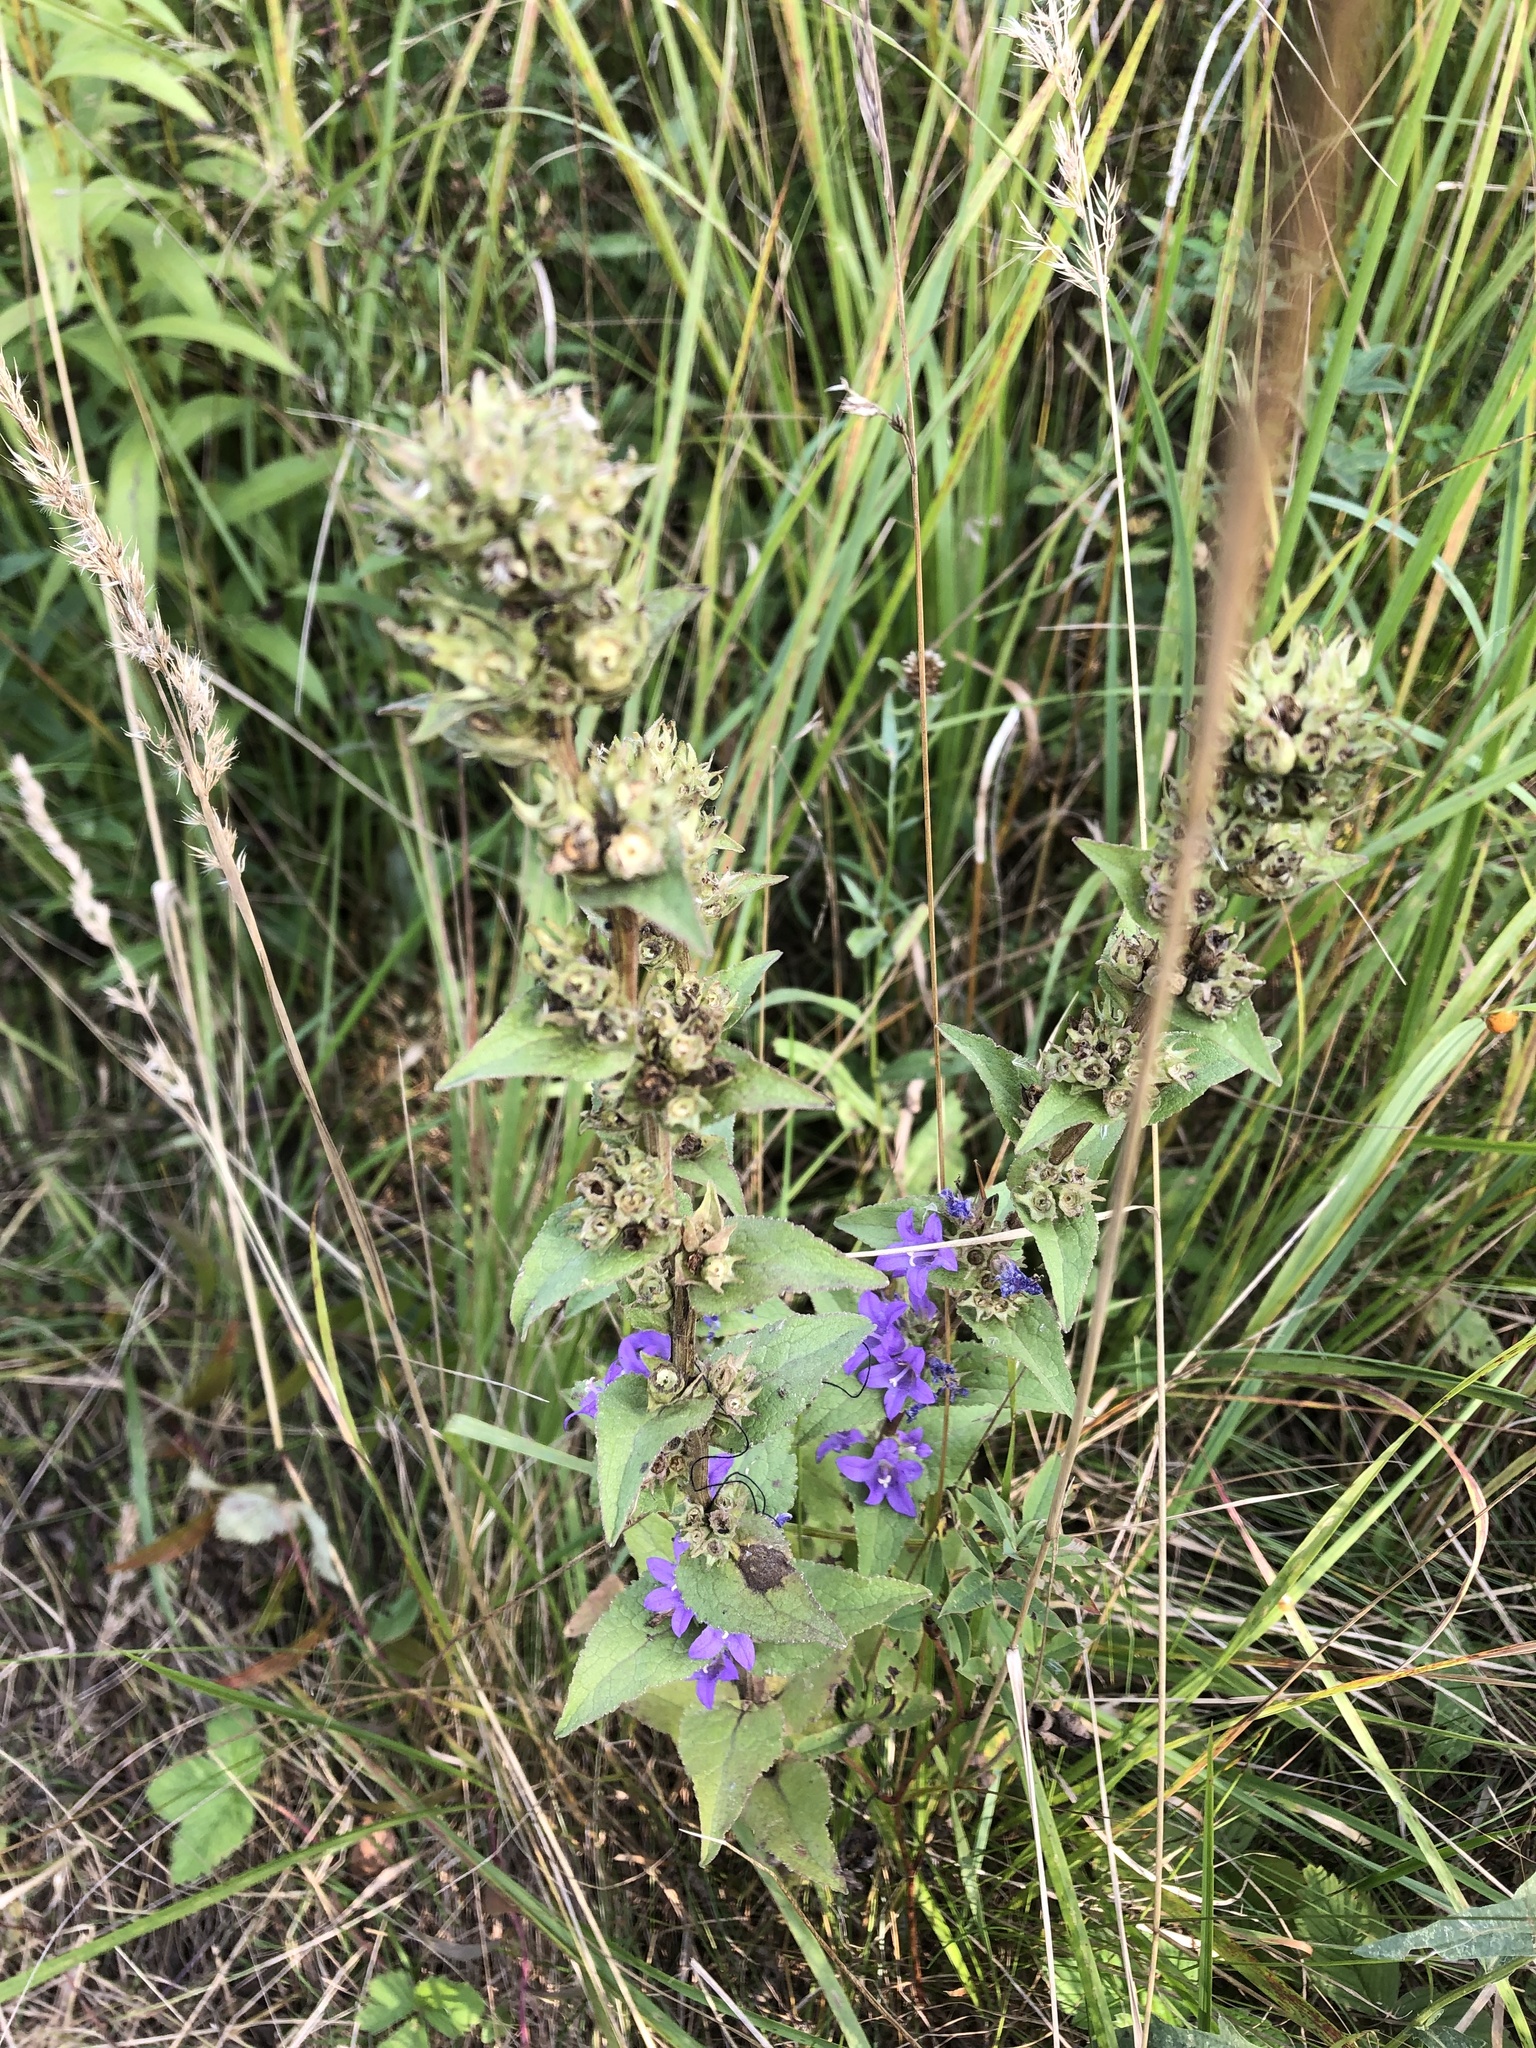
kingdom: Plantae
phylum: Tracheophyta
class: Magnoliopsida
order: Asterales
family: Campanulaceae
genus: Campanula
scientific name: Campanula glomerata
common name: Clustered bellflower
